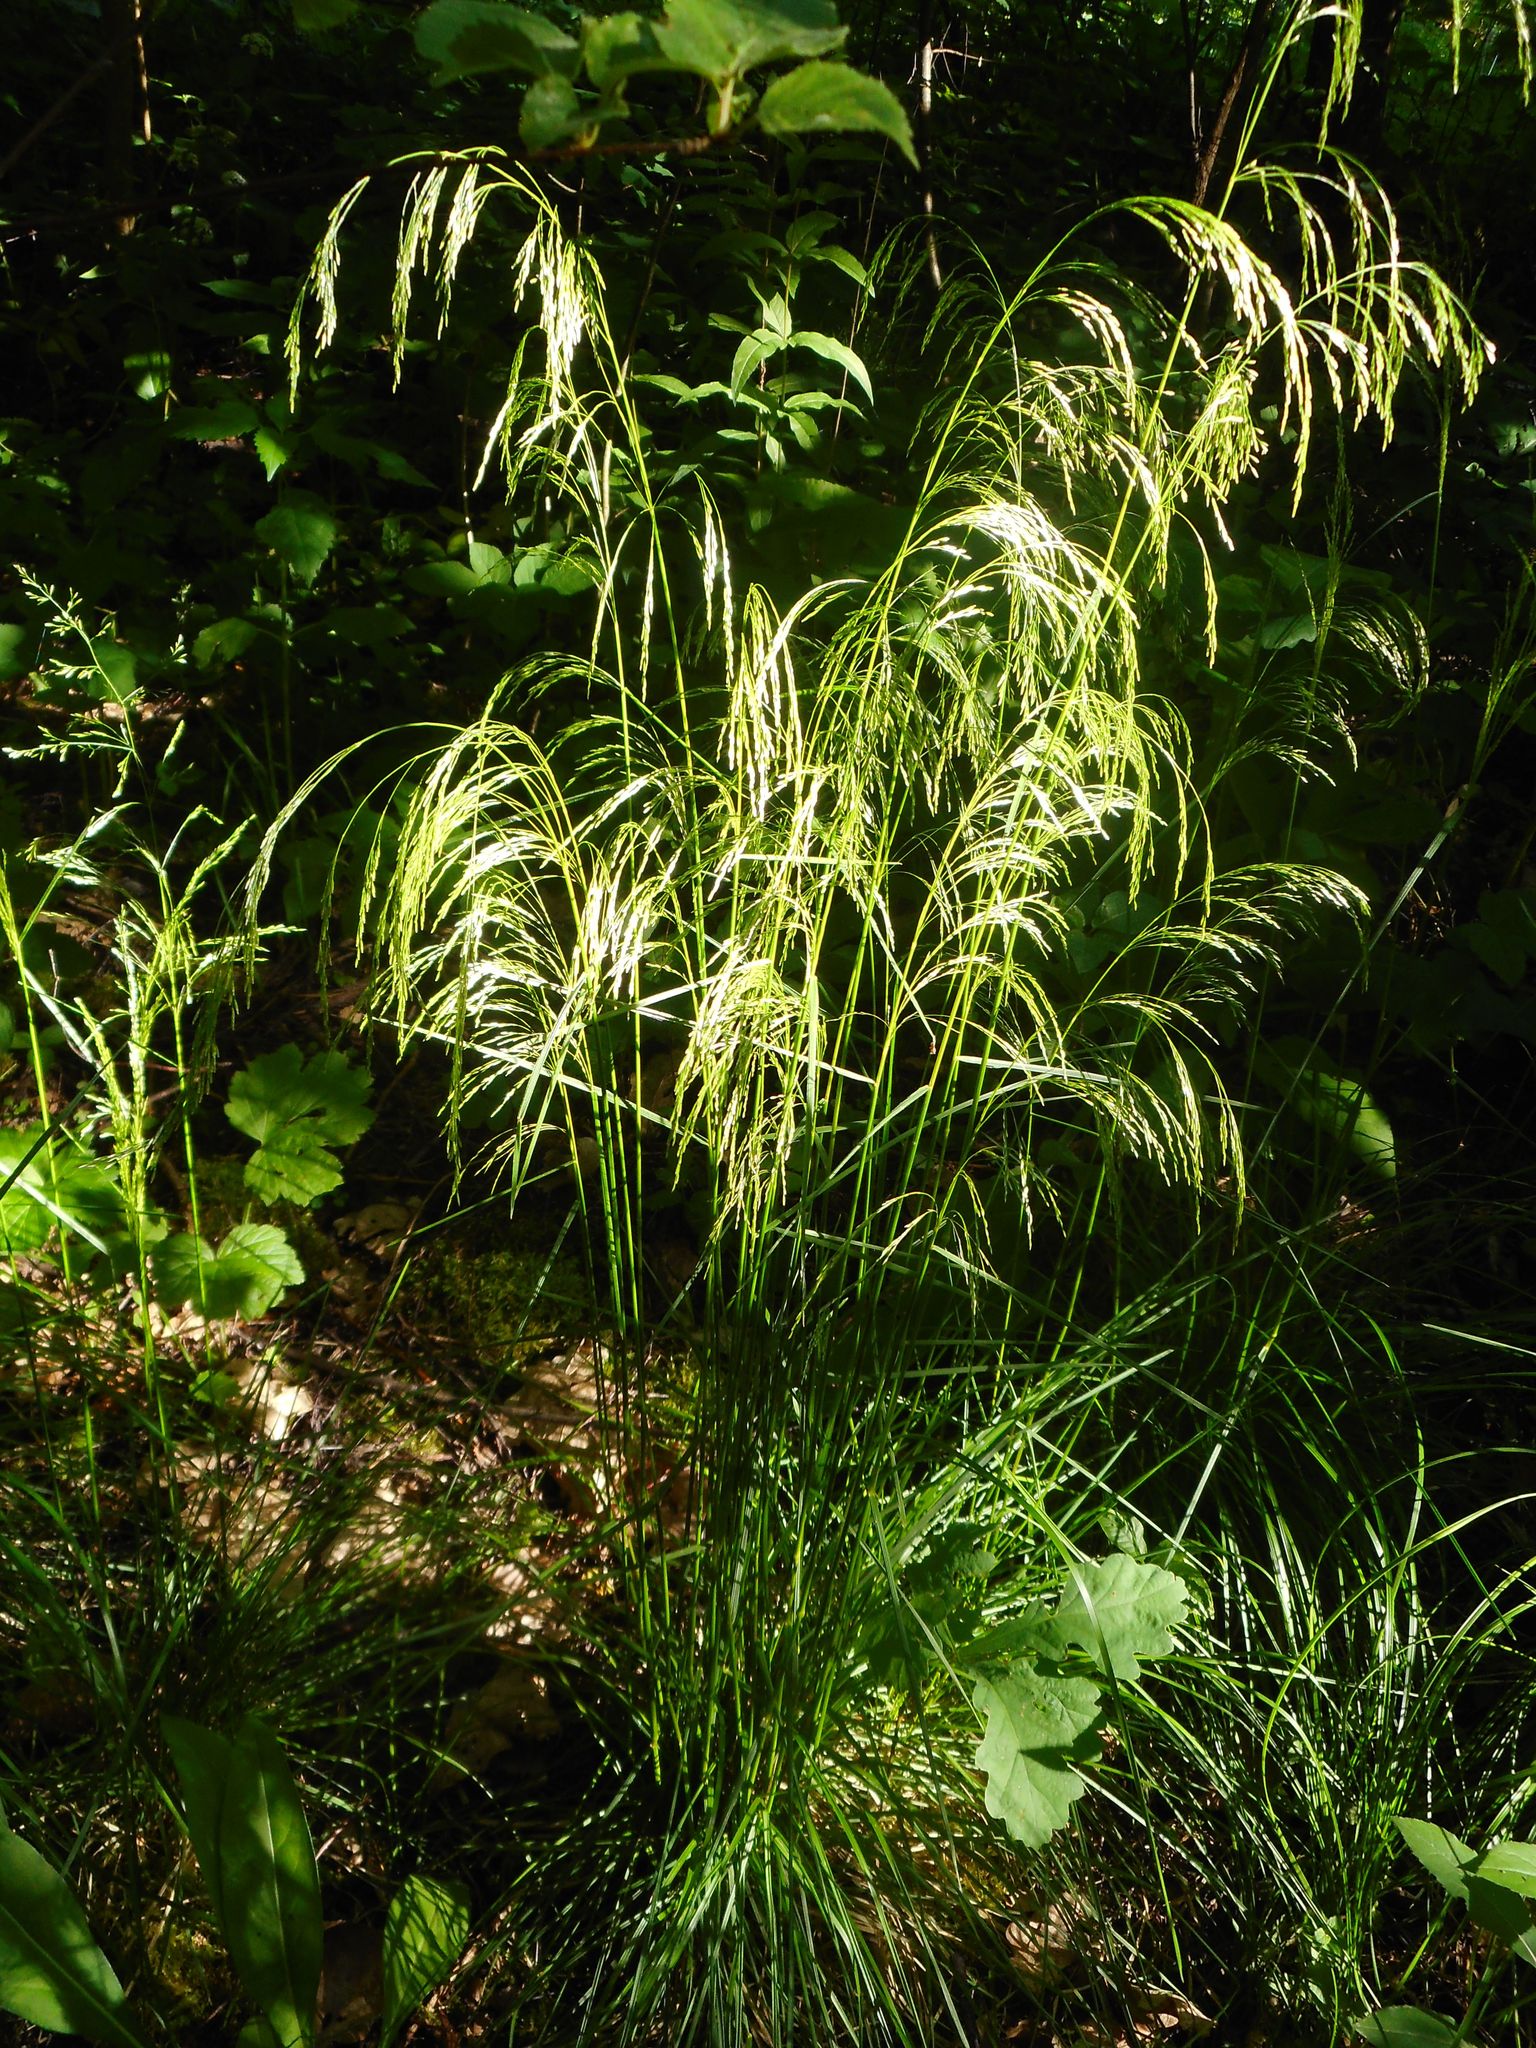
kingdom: Plantae
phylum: Tracheophyta
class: Liliopsida
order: Poales
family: Poaceae
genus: Deschampsia
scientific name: Deschampsia cespitosa
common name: Tufted hair-grass
